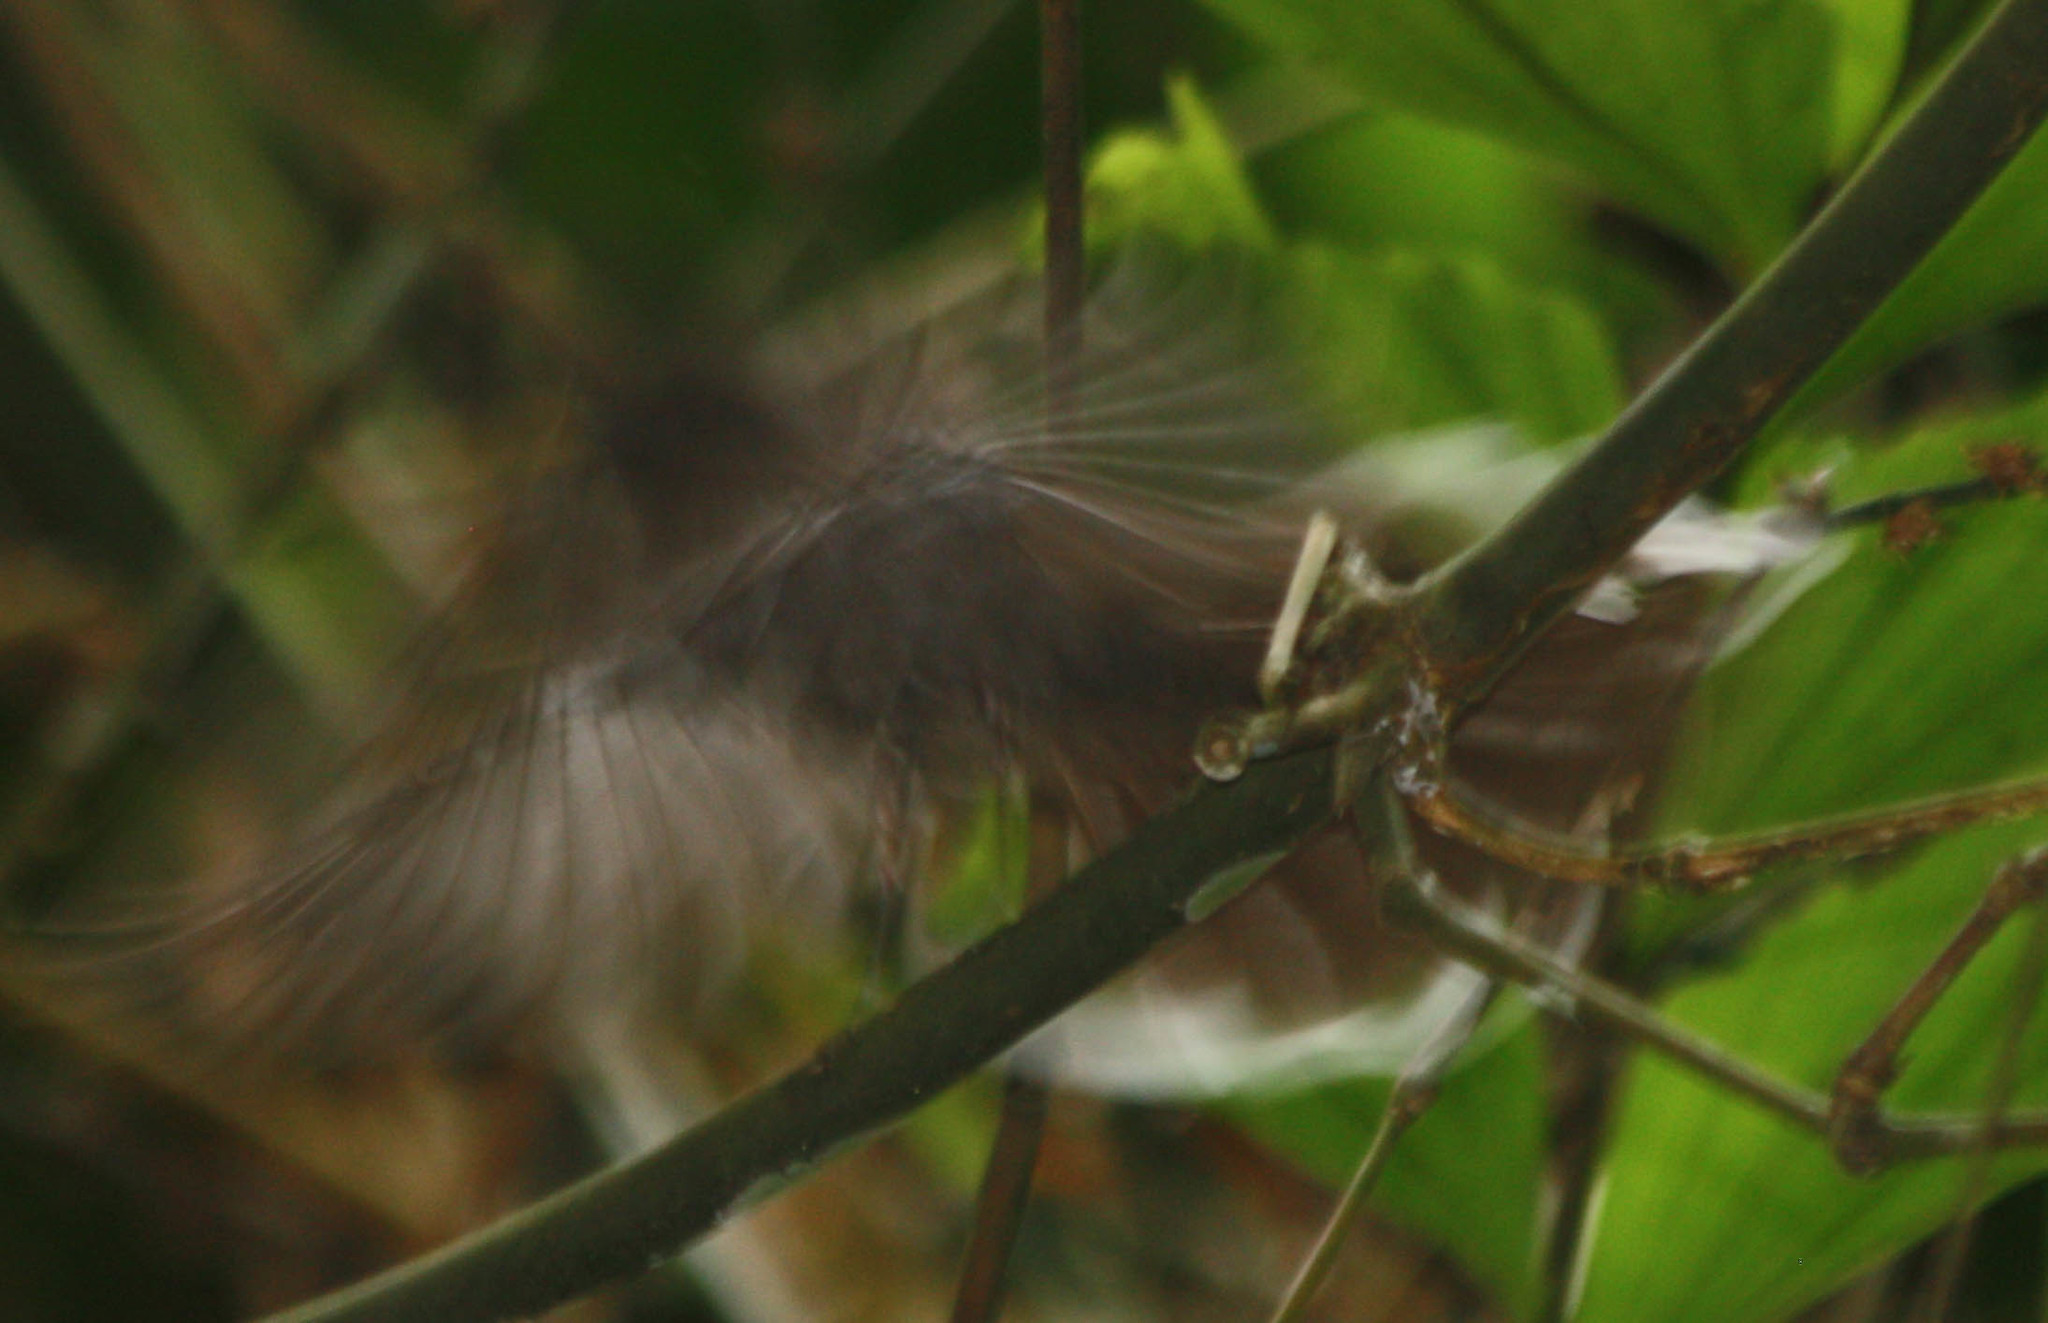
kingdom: Animalia
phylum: Chordata
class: Aves
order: Passeriformes
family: Rhipiduridae
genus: Rhipidura
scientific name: Rhipidura albicollis
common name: White-throated fantail
